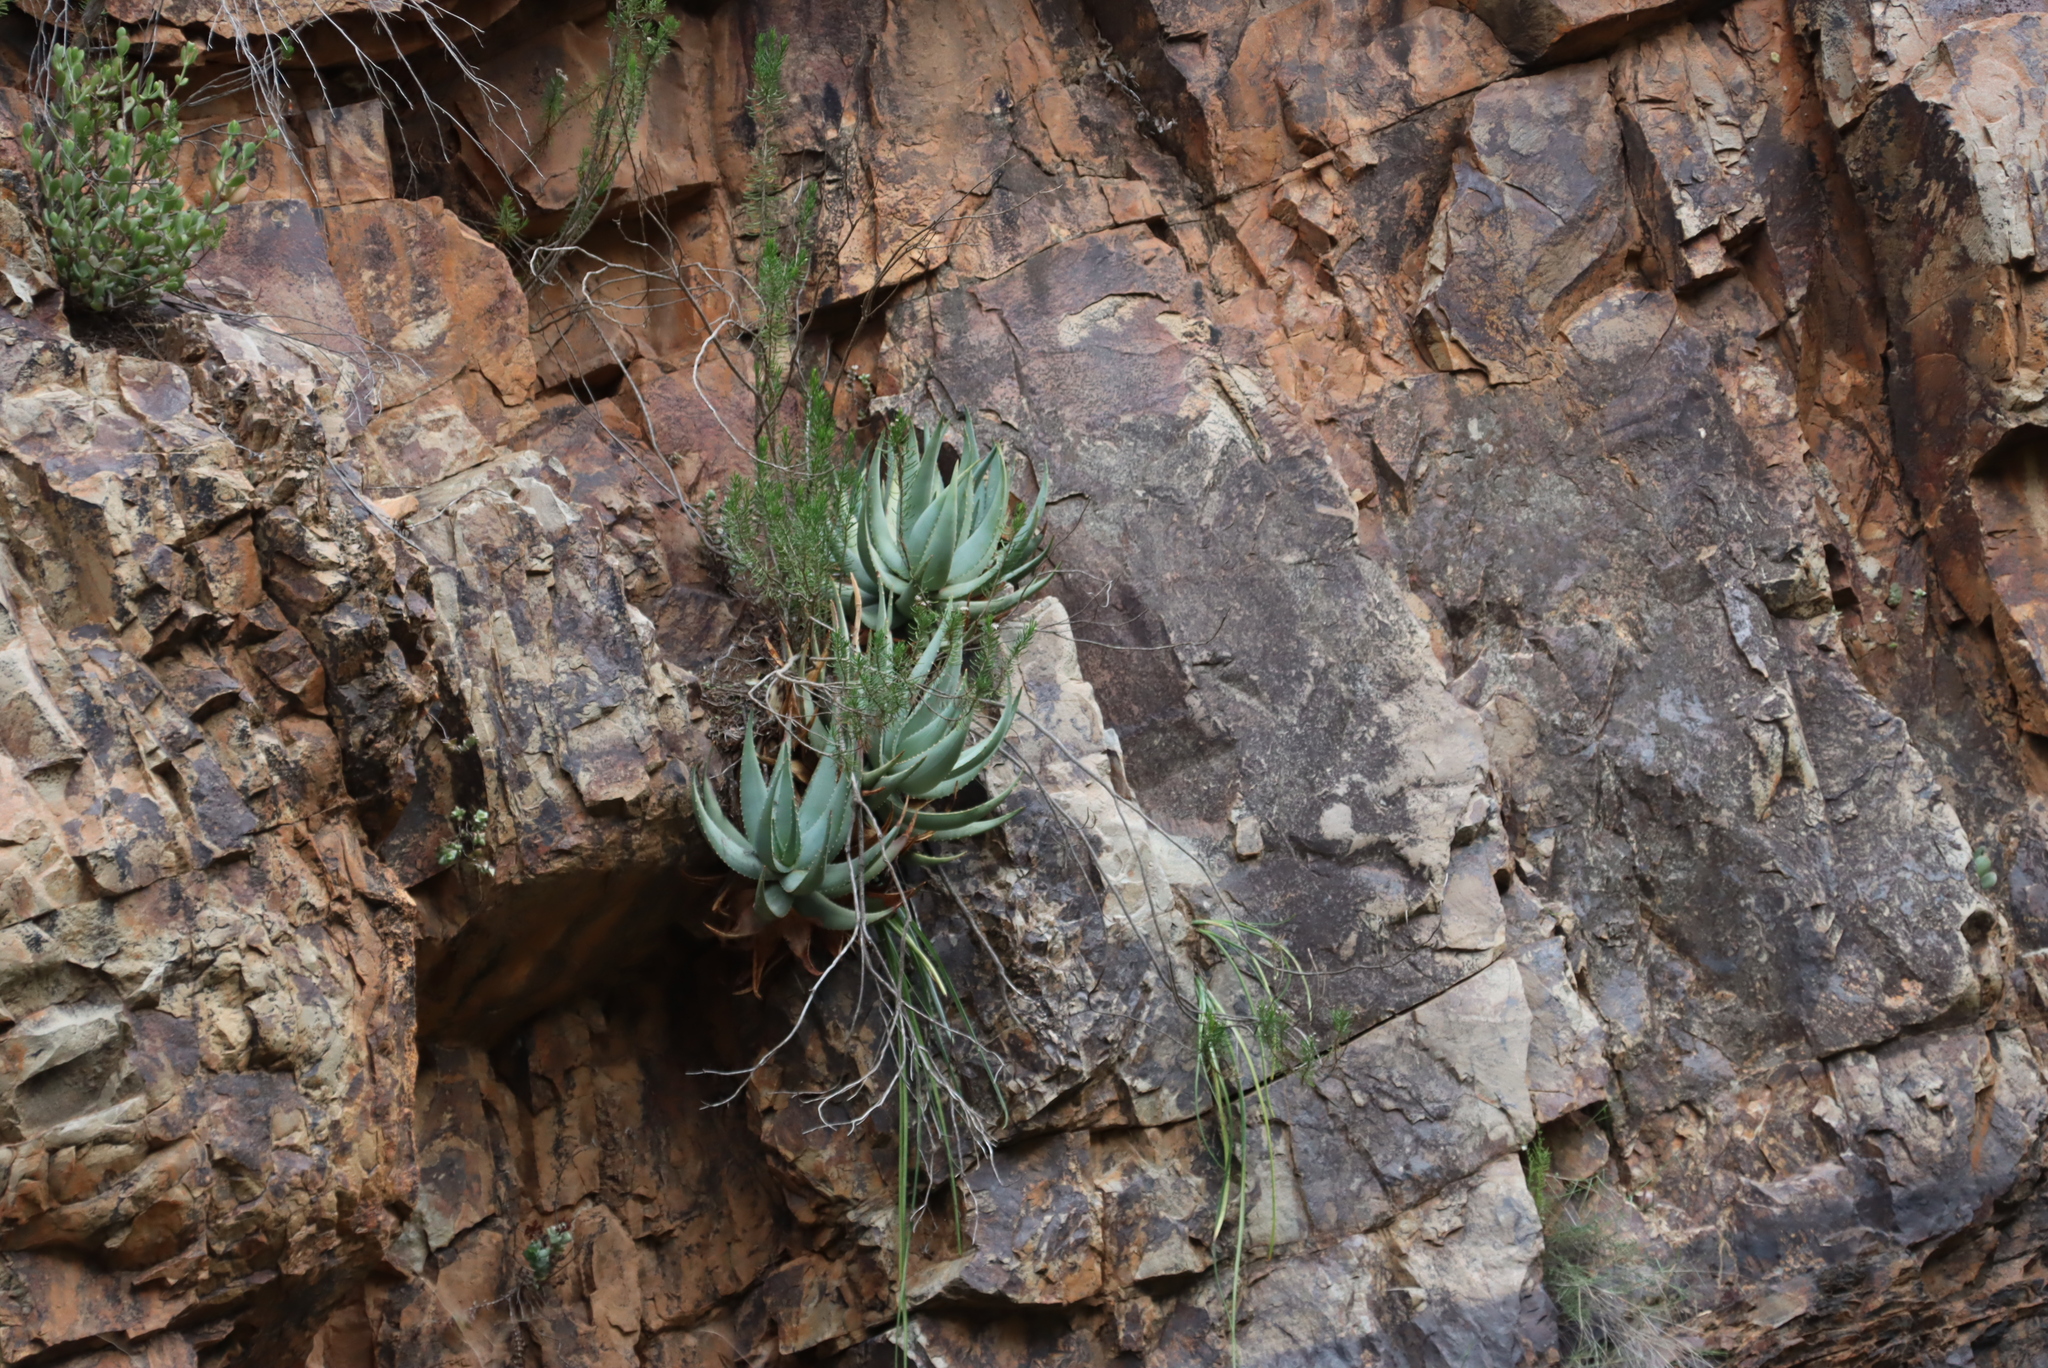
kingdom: Plantae
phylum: Tracheophyta
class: Liliopsida
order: Asparagales
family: Asphodelaceae
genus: Aloe
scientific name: Aloe comptonii
